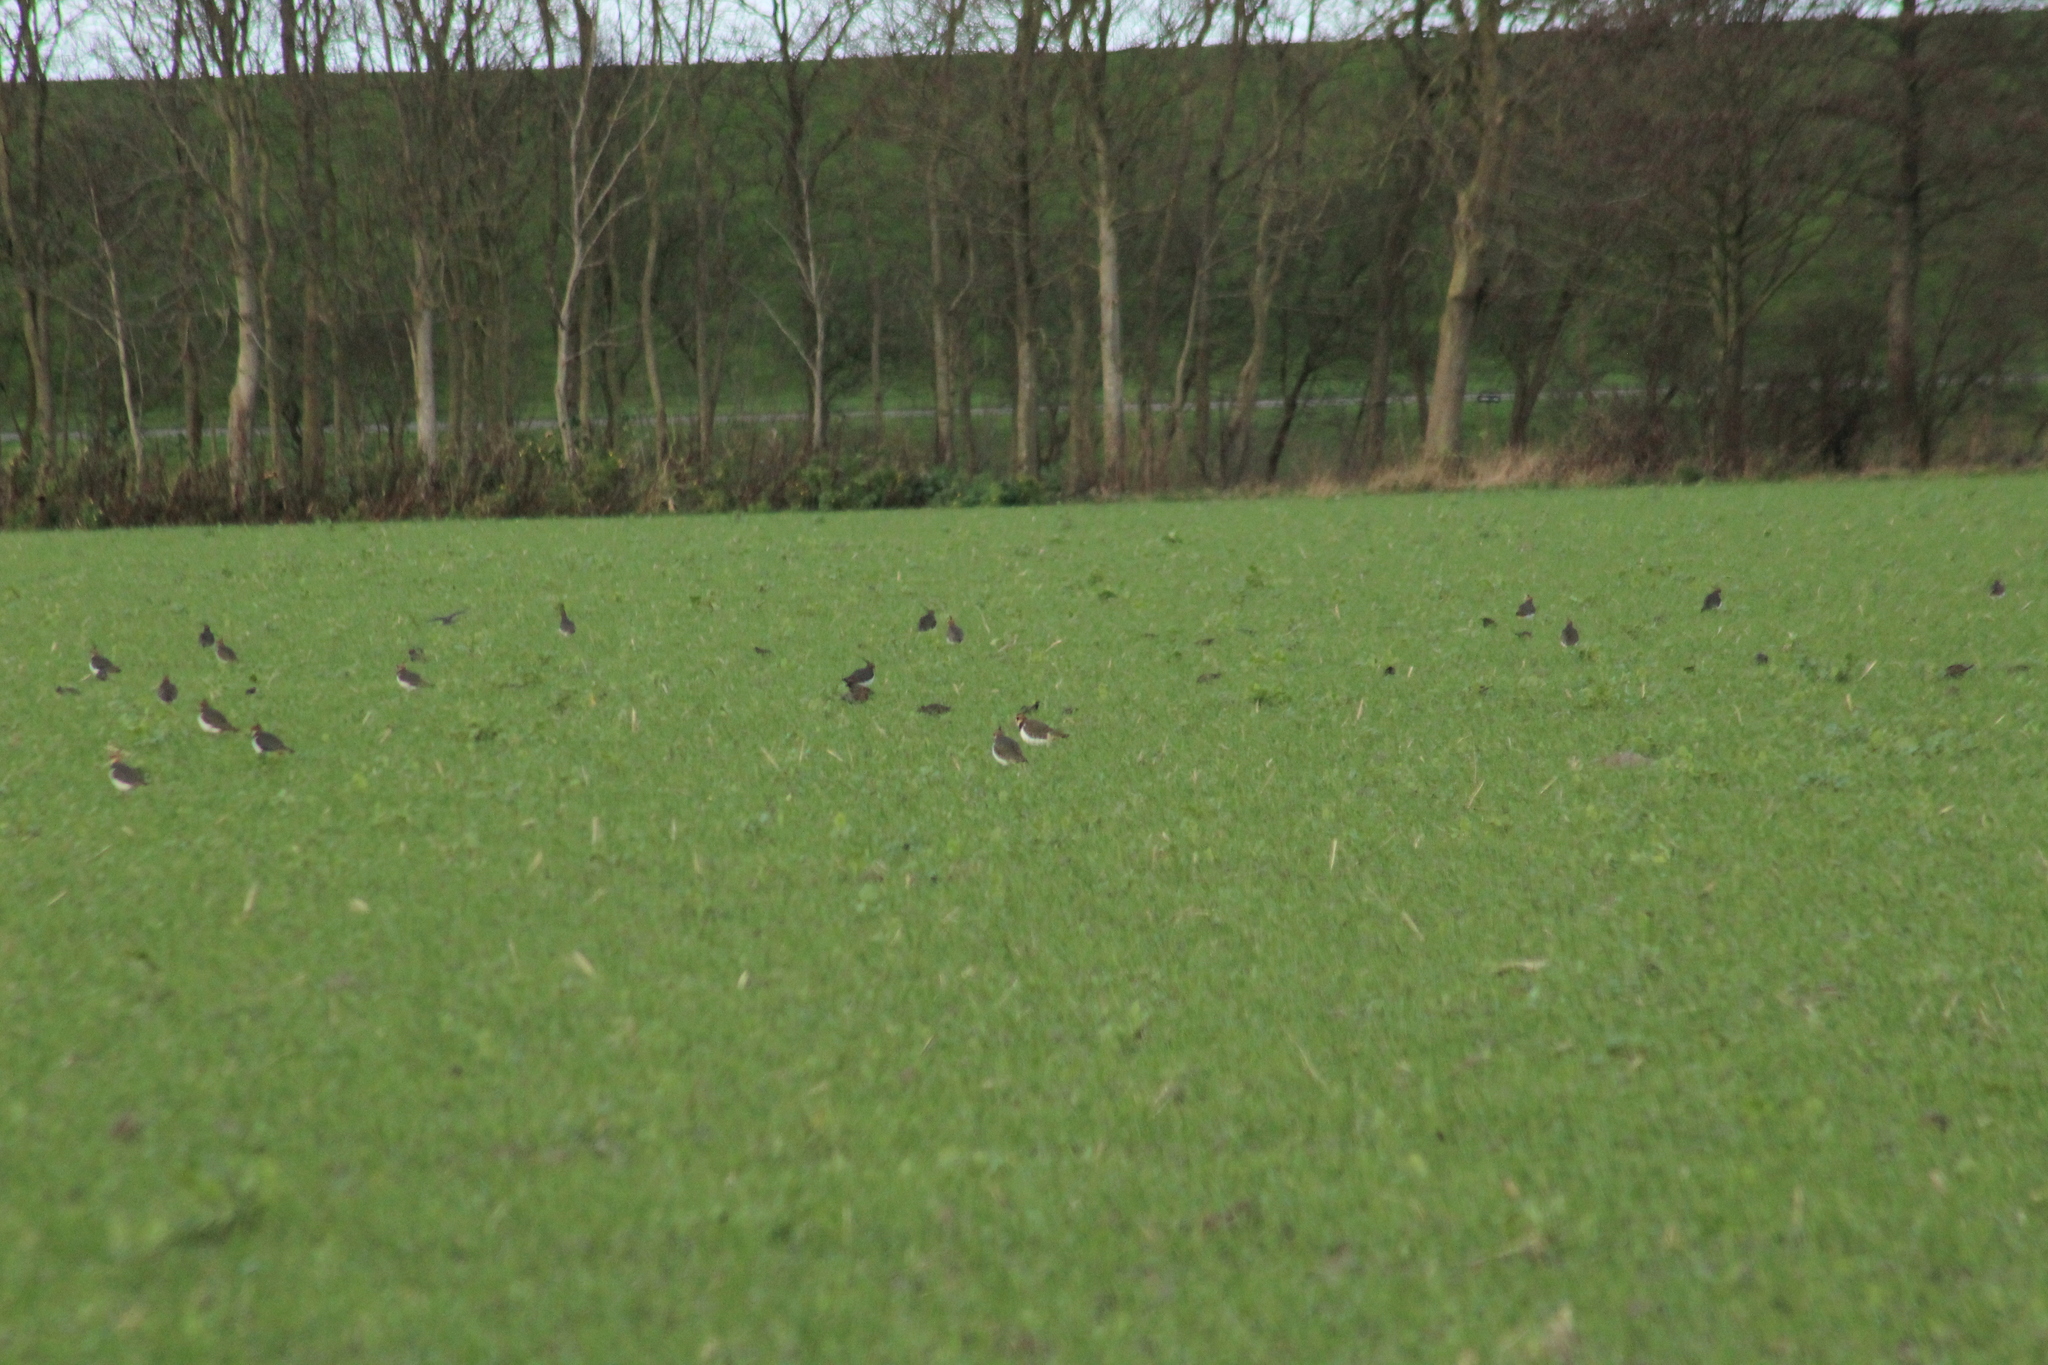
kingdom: Animalia
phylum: Chordata
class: Aves
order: Charadriiformes
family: Charadriidae
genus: Vanellus
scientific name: Vanellus vanellus
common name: Northern lapwing
